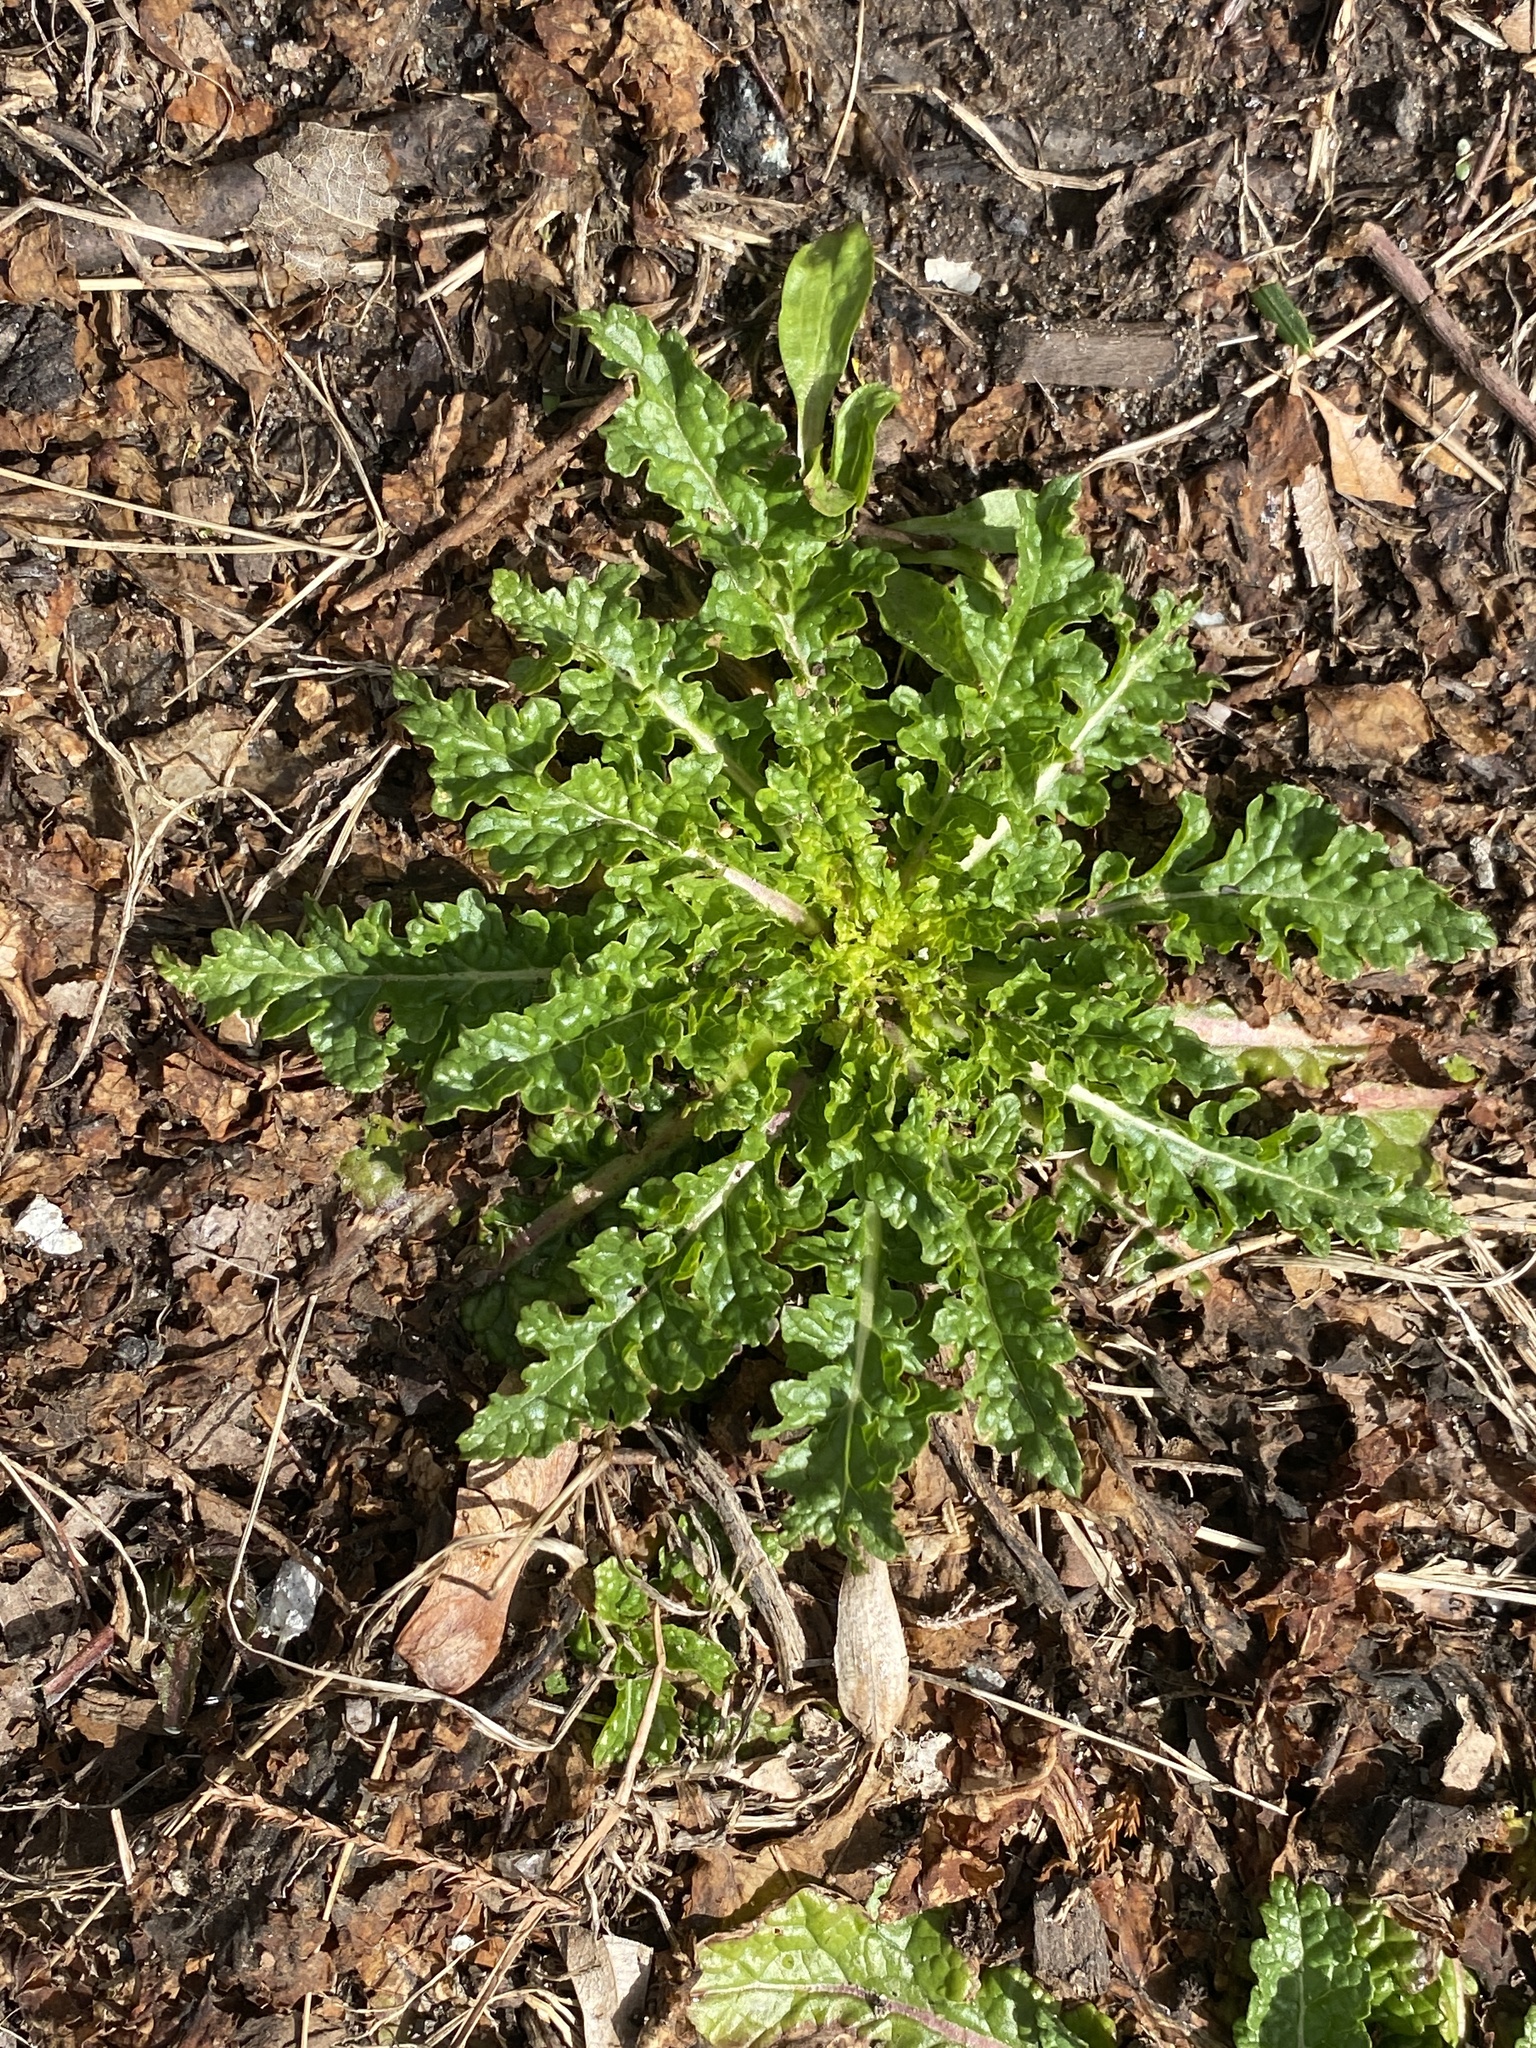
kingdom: Plantae
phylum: Tracheophyta
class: Magnoliopsida
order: Lamiales
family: Scrophulariaceae
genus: Verbascum
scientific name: Verbascum blattaria
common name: Moth mullein
